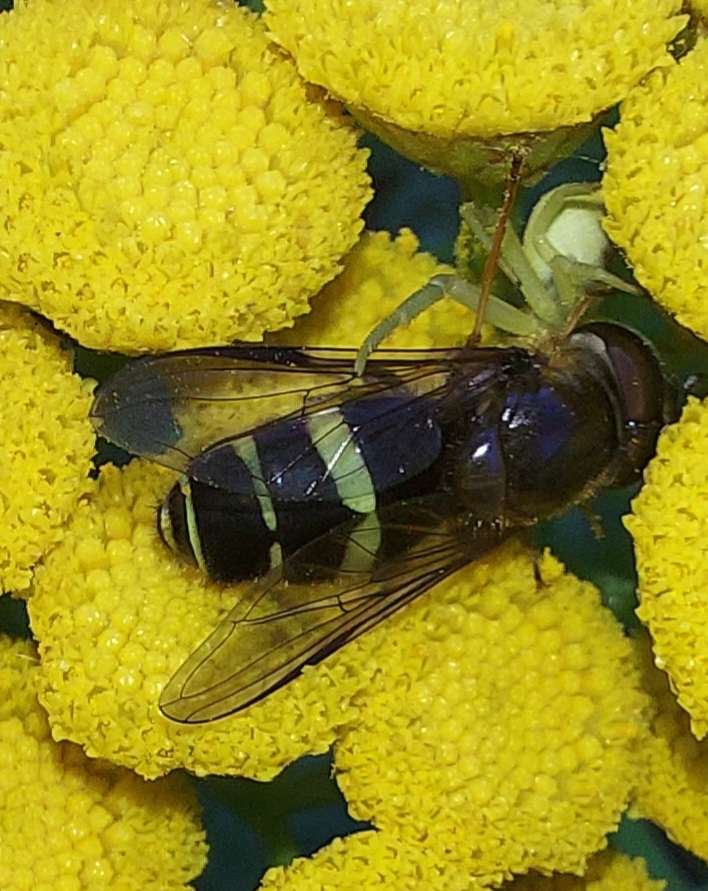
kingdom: Animalia
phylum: Arthropoda
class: Insecta
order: Diptera
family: Syrphidae
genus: Dasysyrphus
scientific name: Dasysyrphus tricinctus
